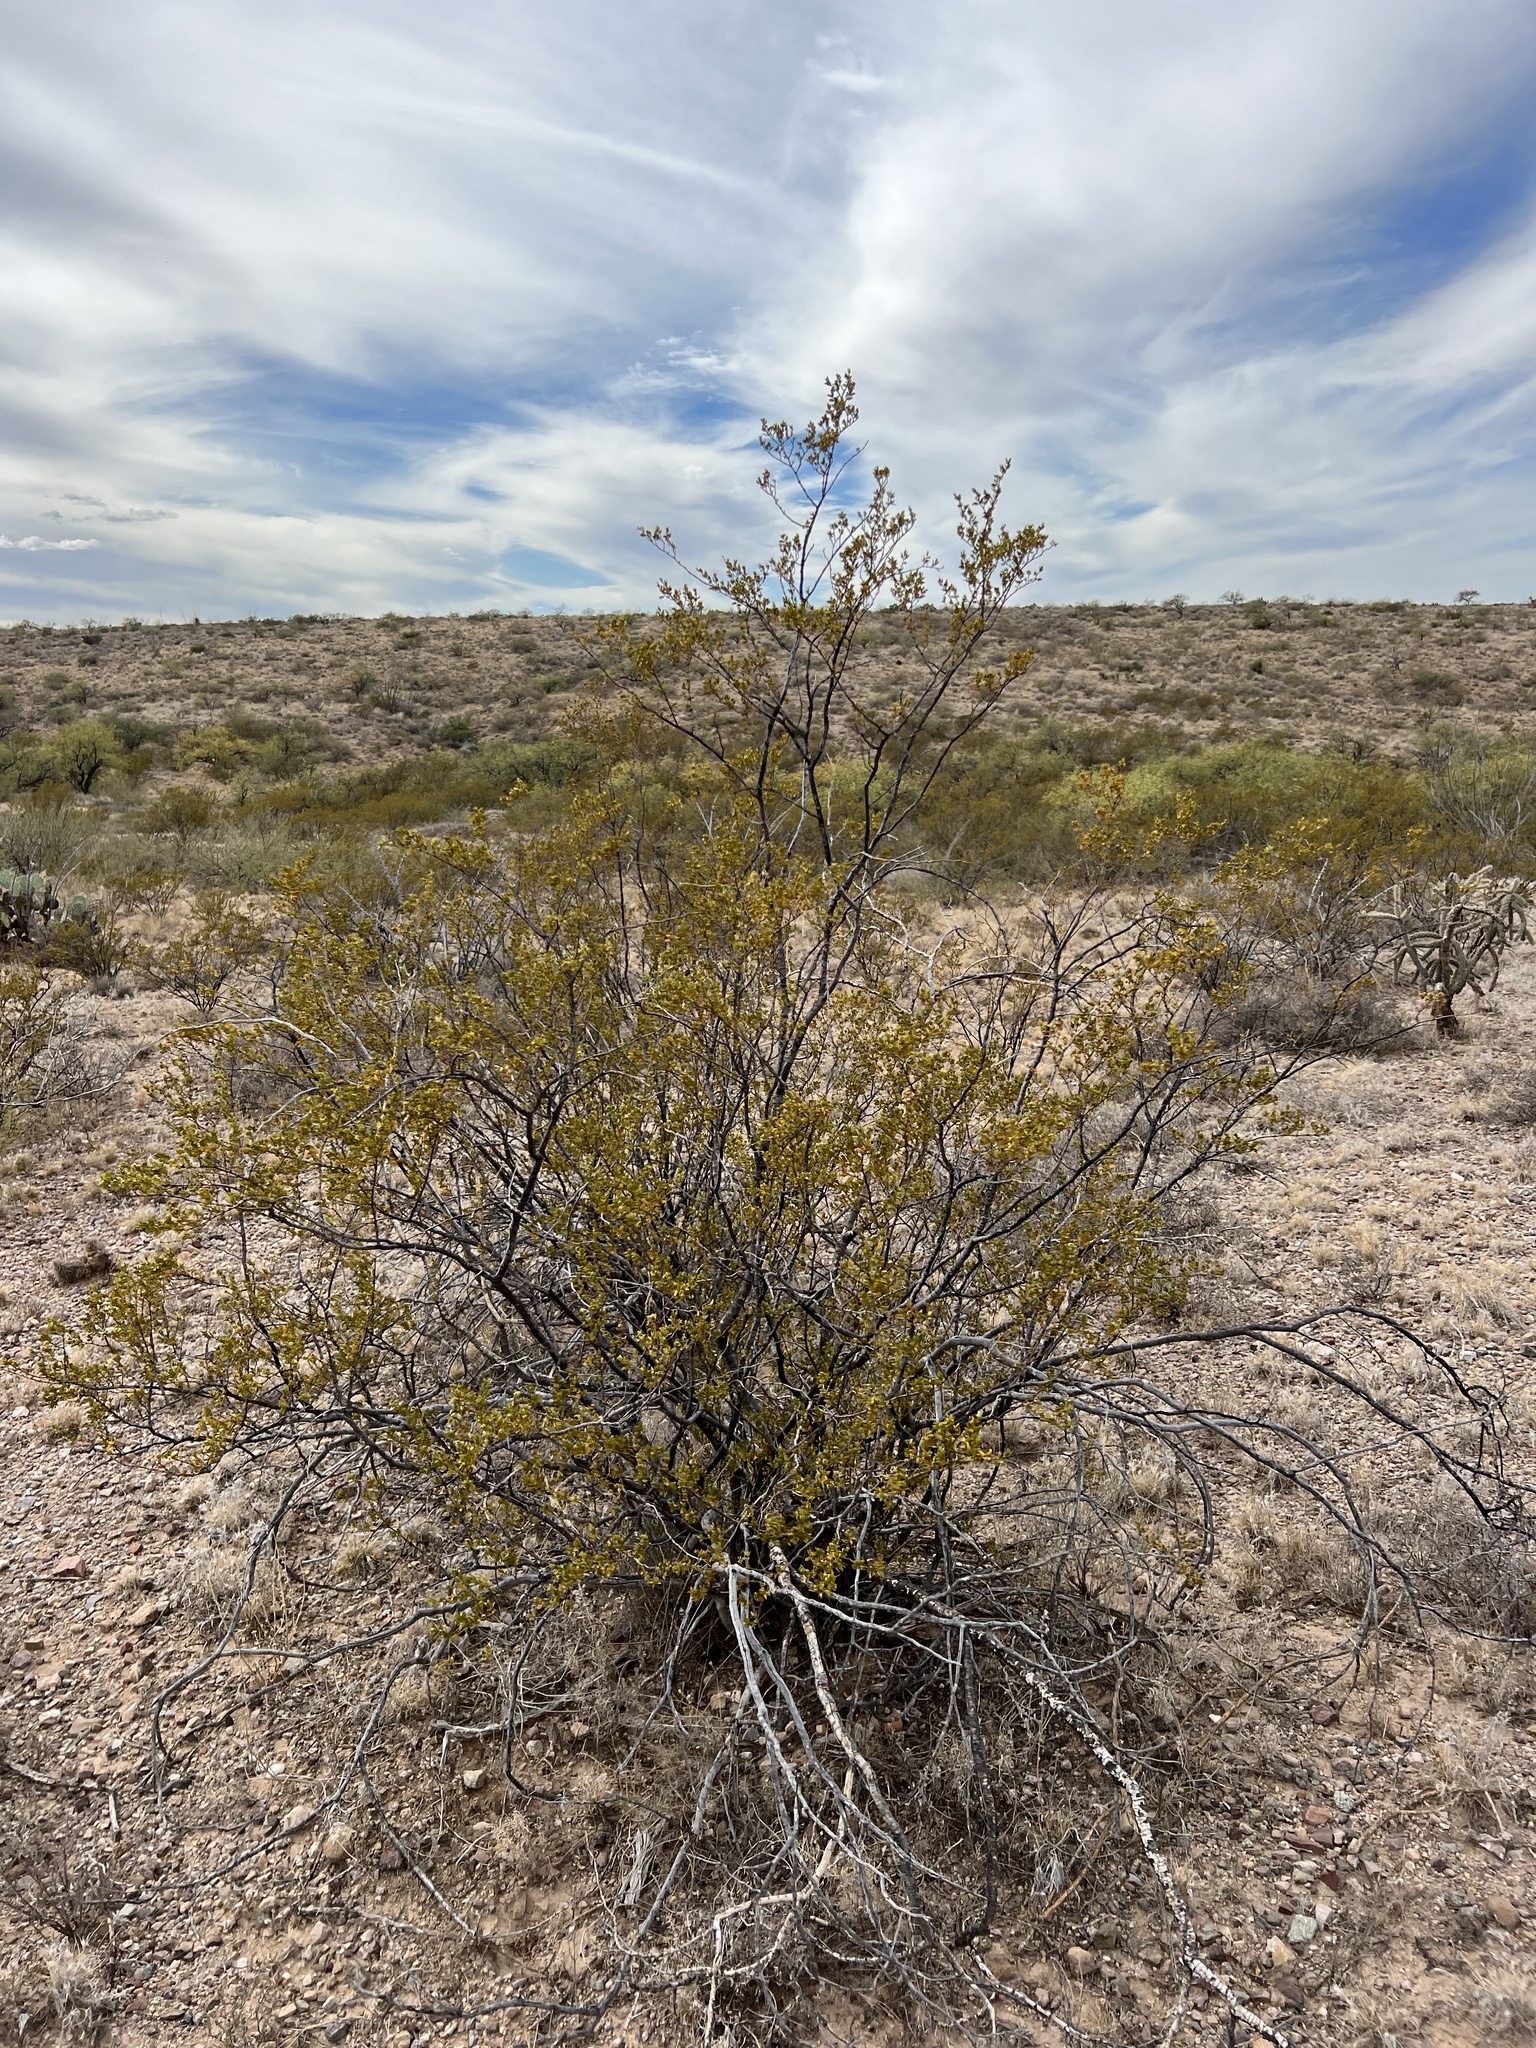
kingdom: Plantae
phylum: Tracheophyta
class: Magnoliopsida
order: Zygophyllales
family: Zygophyllaceae
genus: Larrea
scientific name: Larrea tridentata
